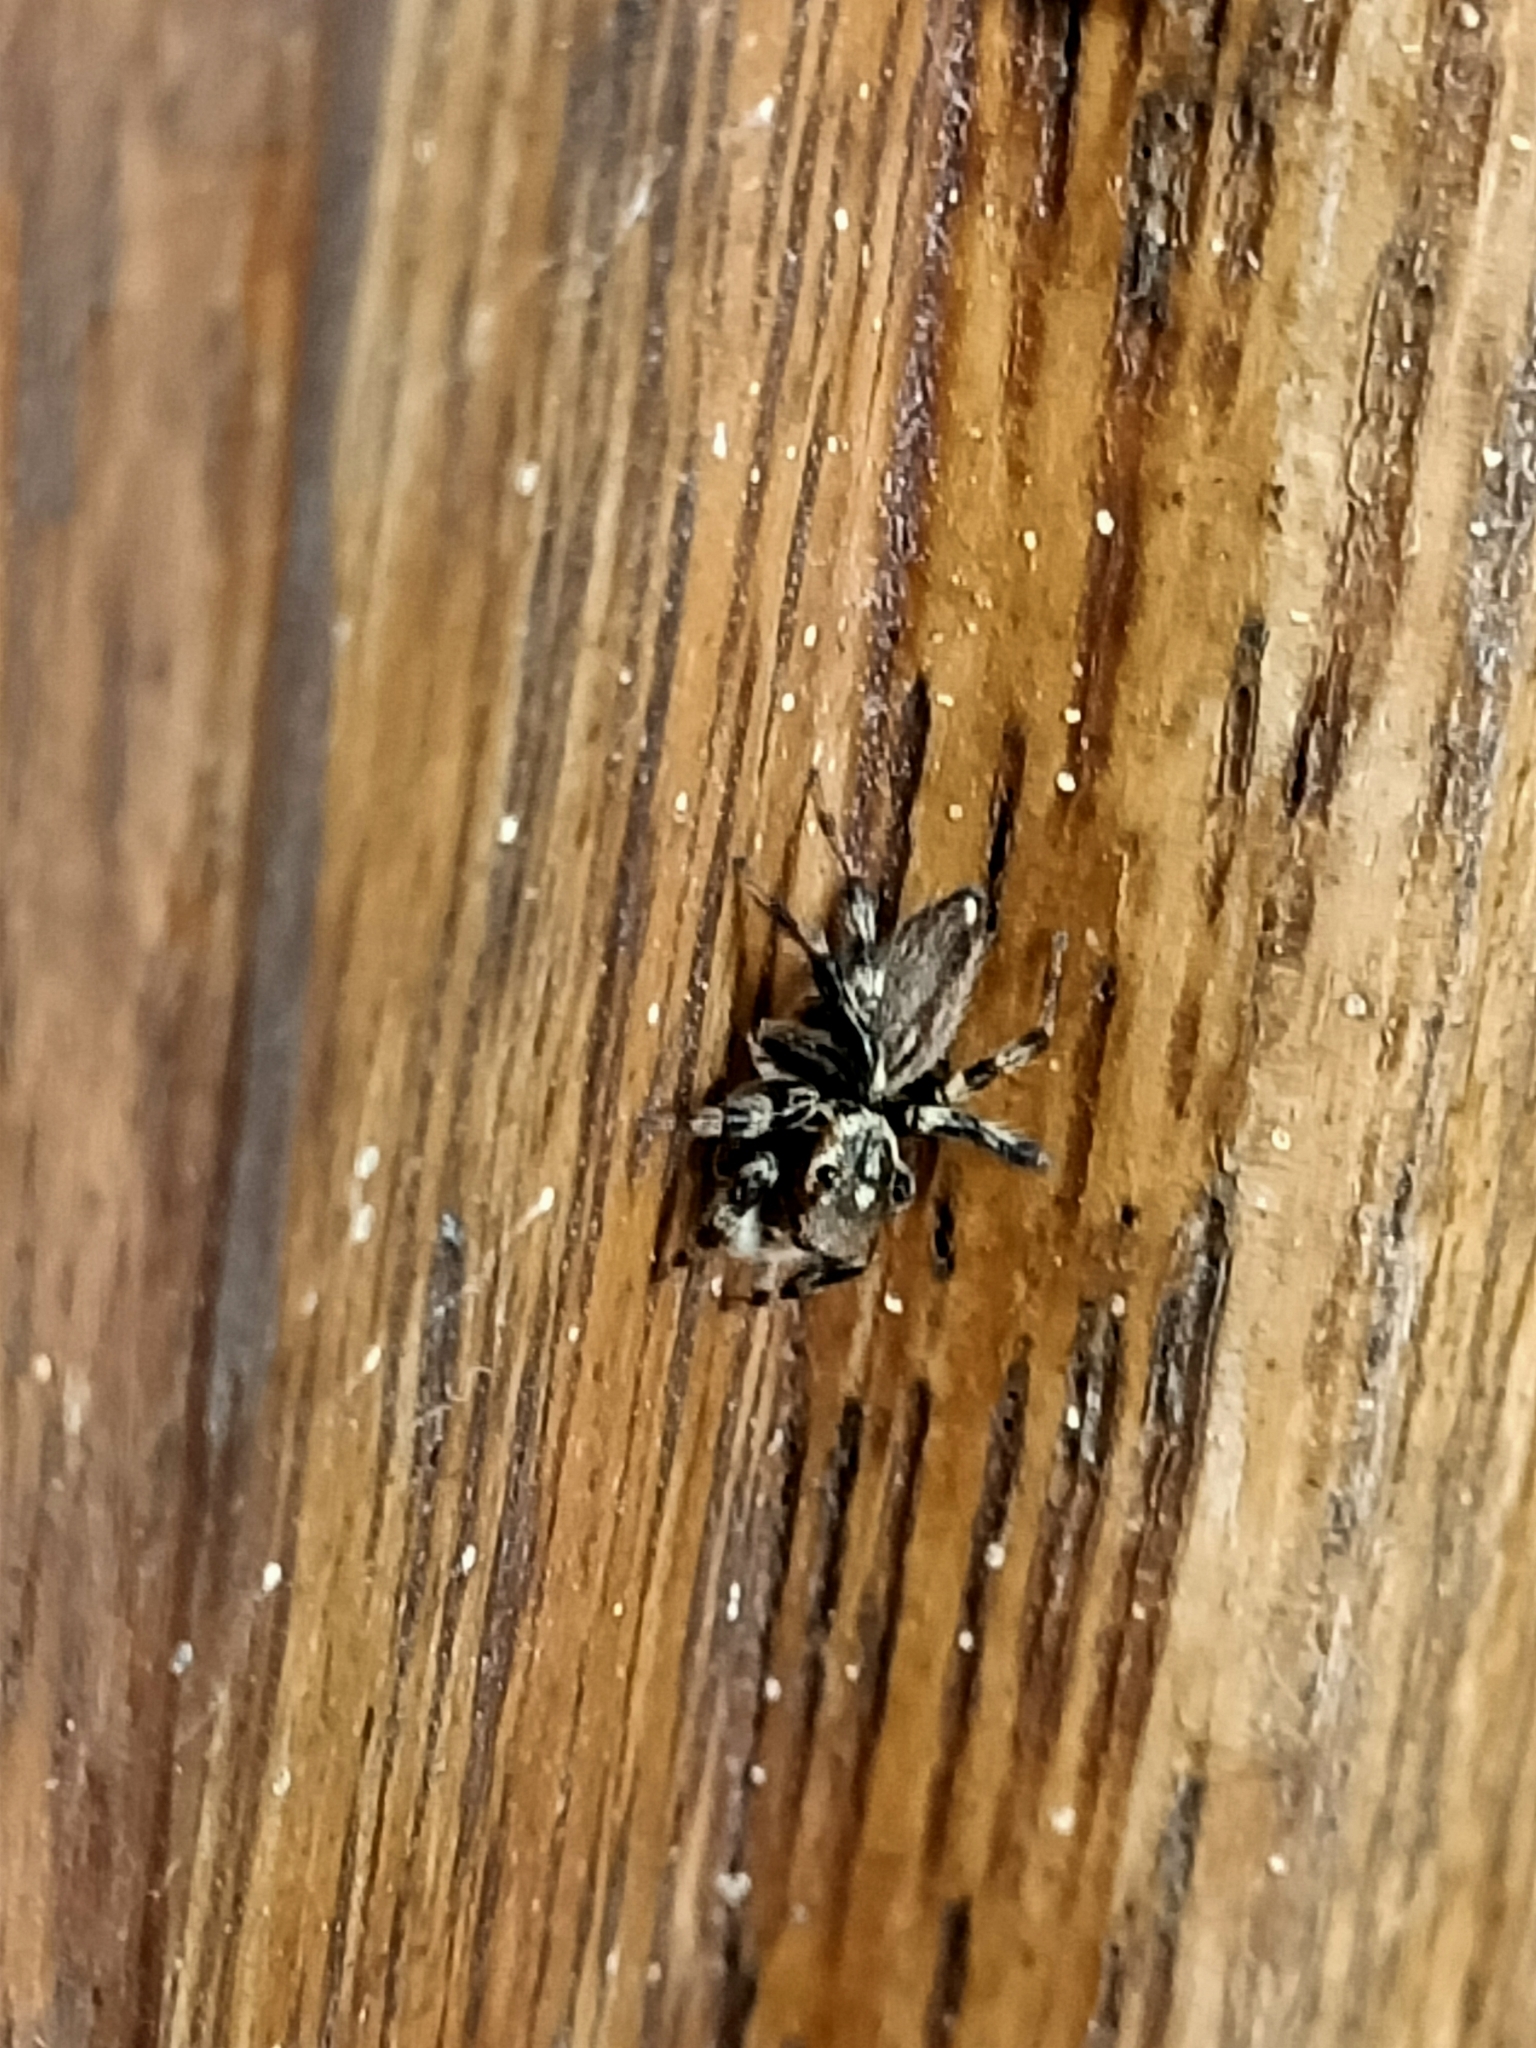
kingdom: Animalia
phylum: Arthropoda
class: Arachnida
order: Araneae
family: Salticidae
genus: Maratus
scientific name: Maratus griseus
